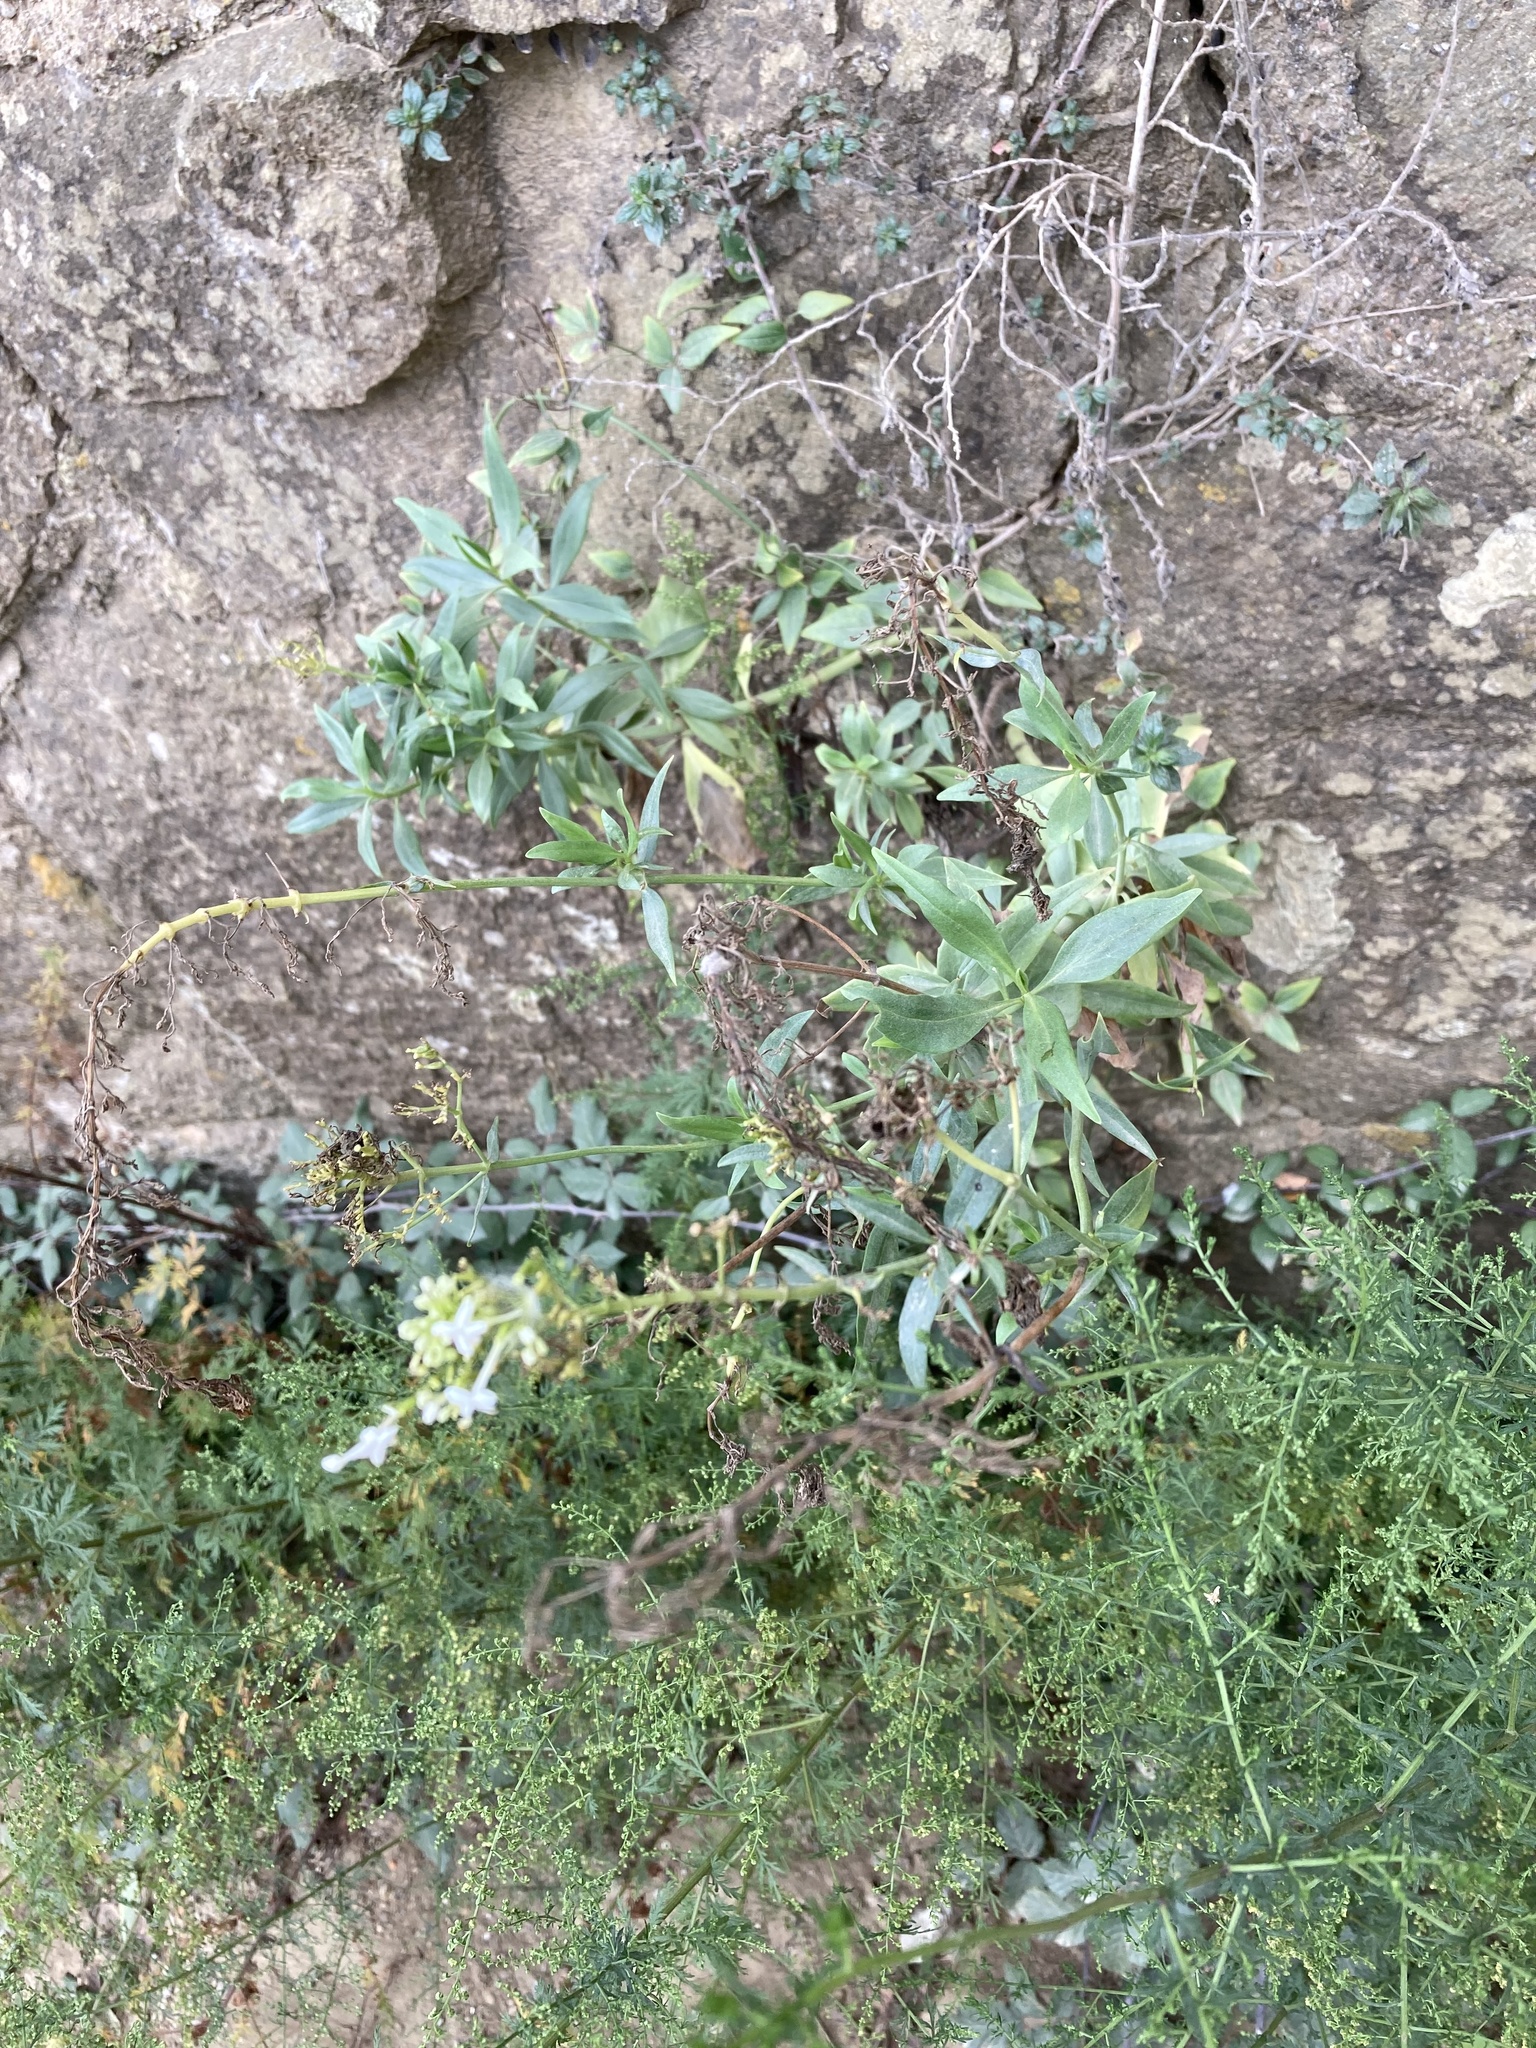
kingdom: Plantae
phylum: Tracheophyta
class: Magnoliopsida
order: Dipsacales
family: Caprifoliaceae
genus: Centranthus
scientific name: Centranthus ruber
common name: Red valerian
